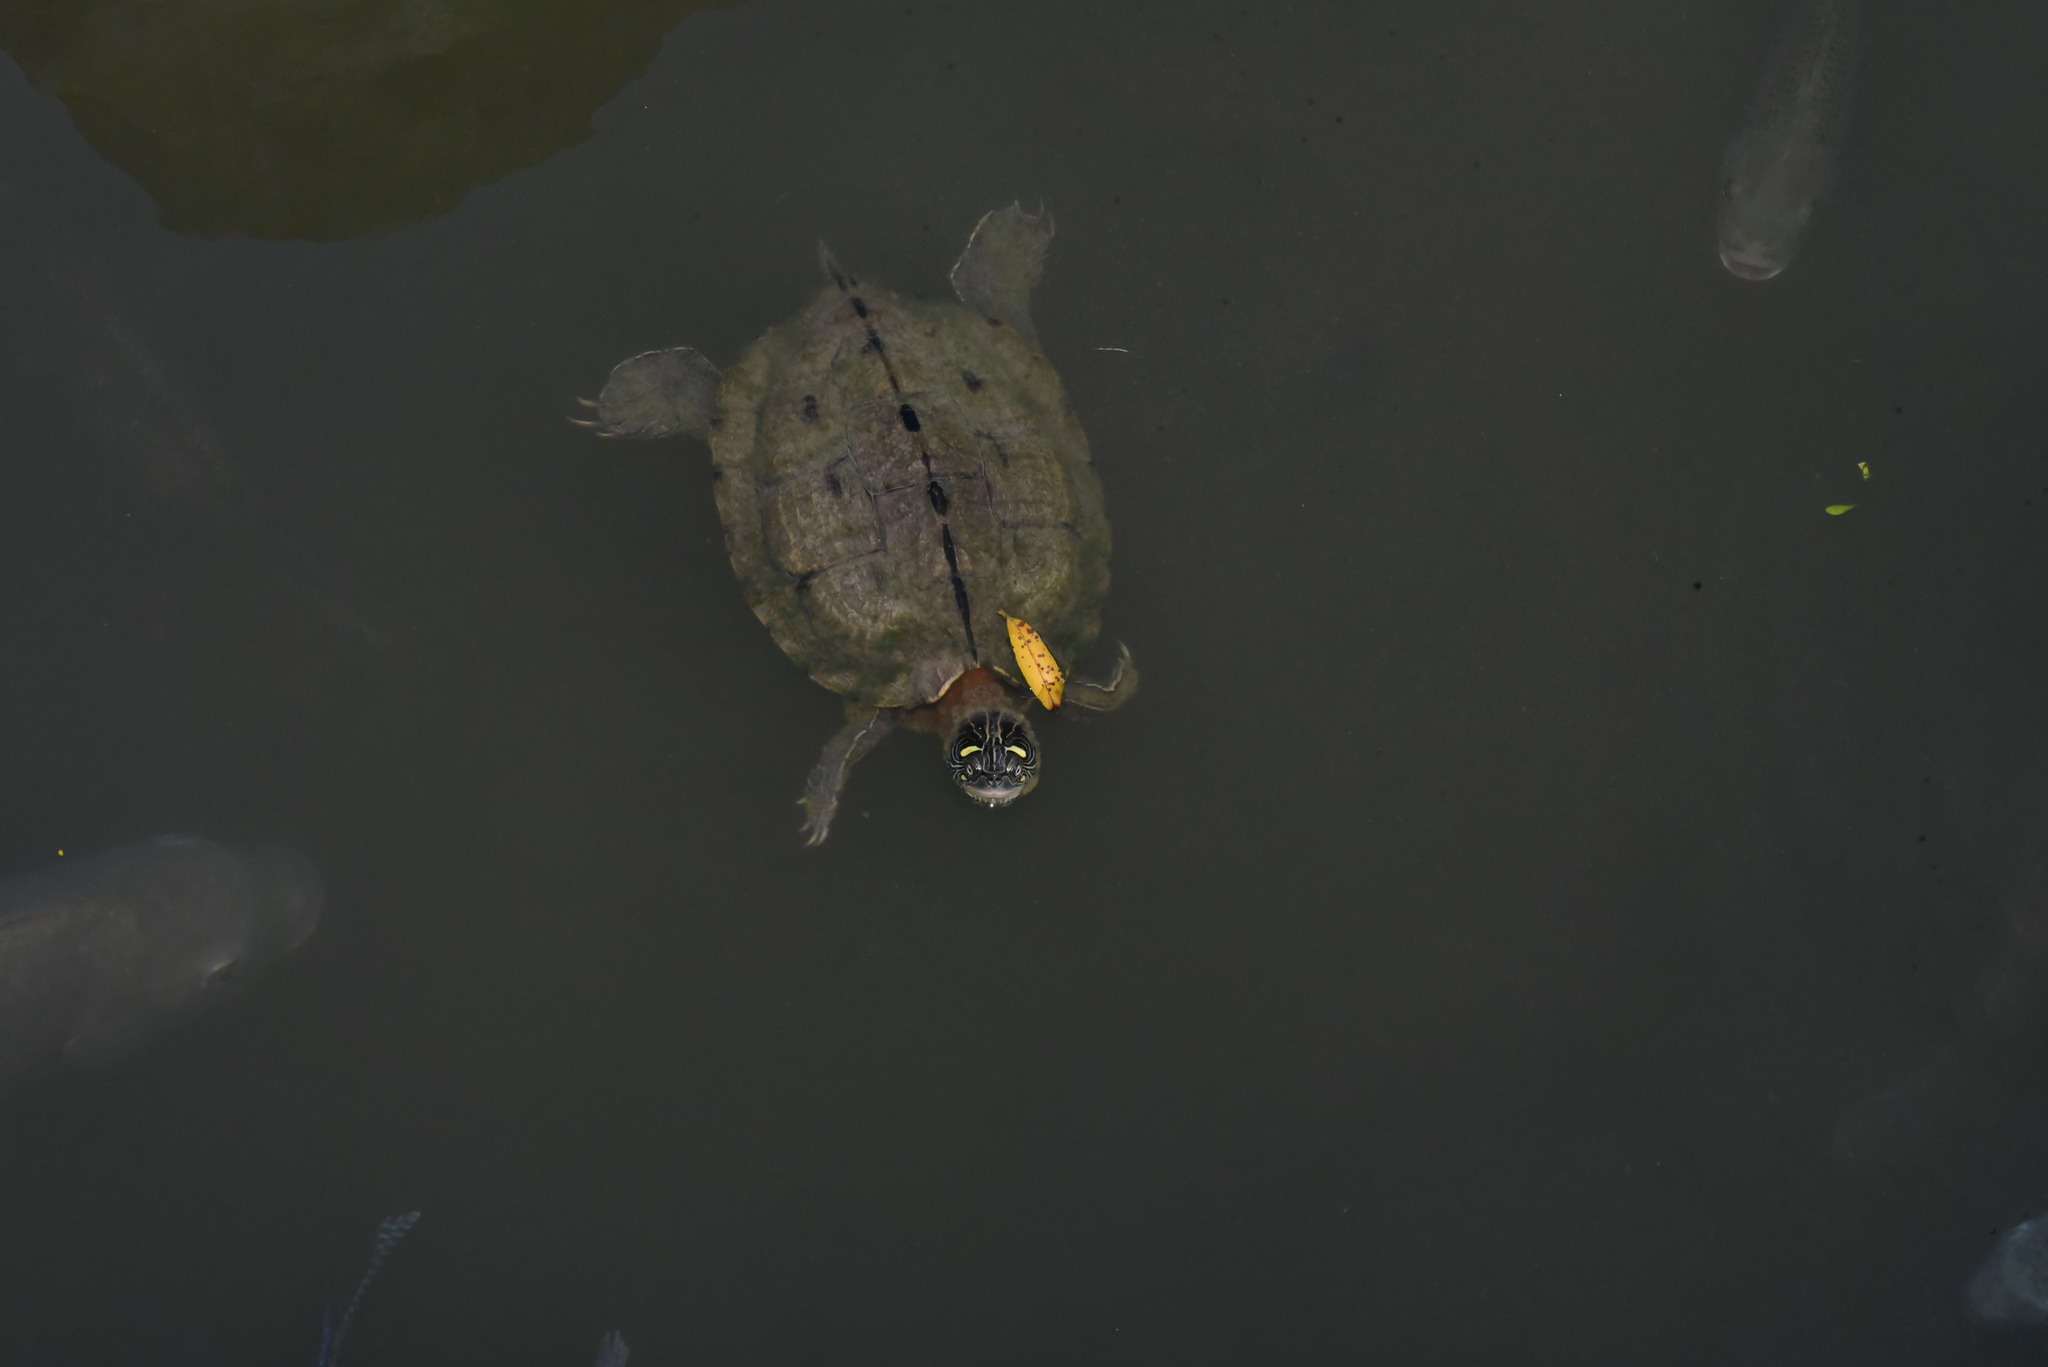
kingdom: Animalia
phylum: Chordata
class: Testudines
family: Emydidae
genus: Graptemys
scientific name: Graptemys ouachitensis
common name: Ouachita map turtle
